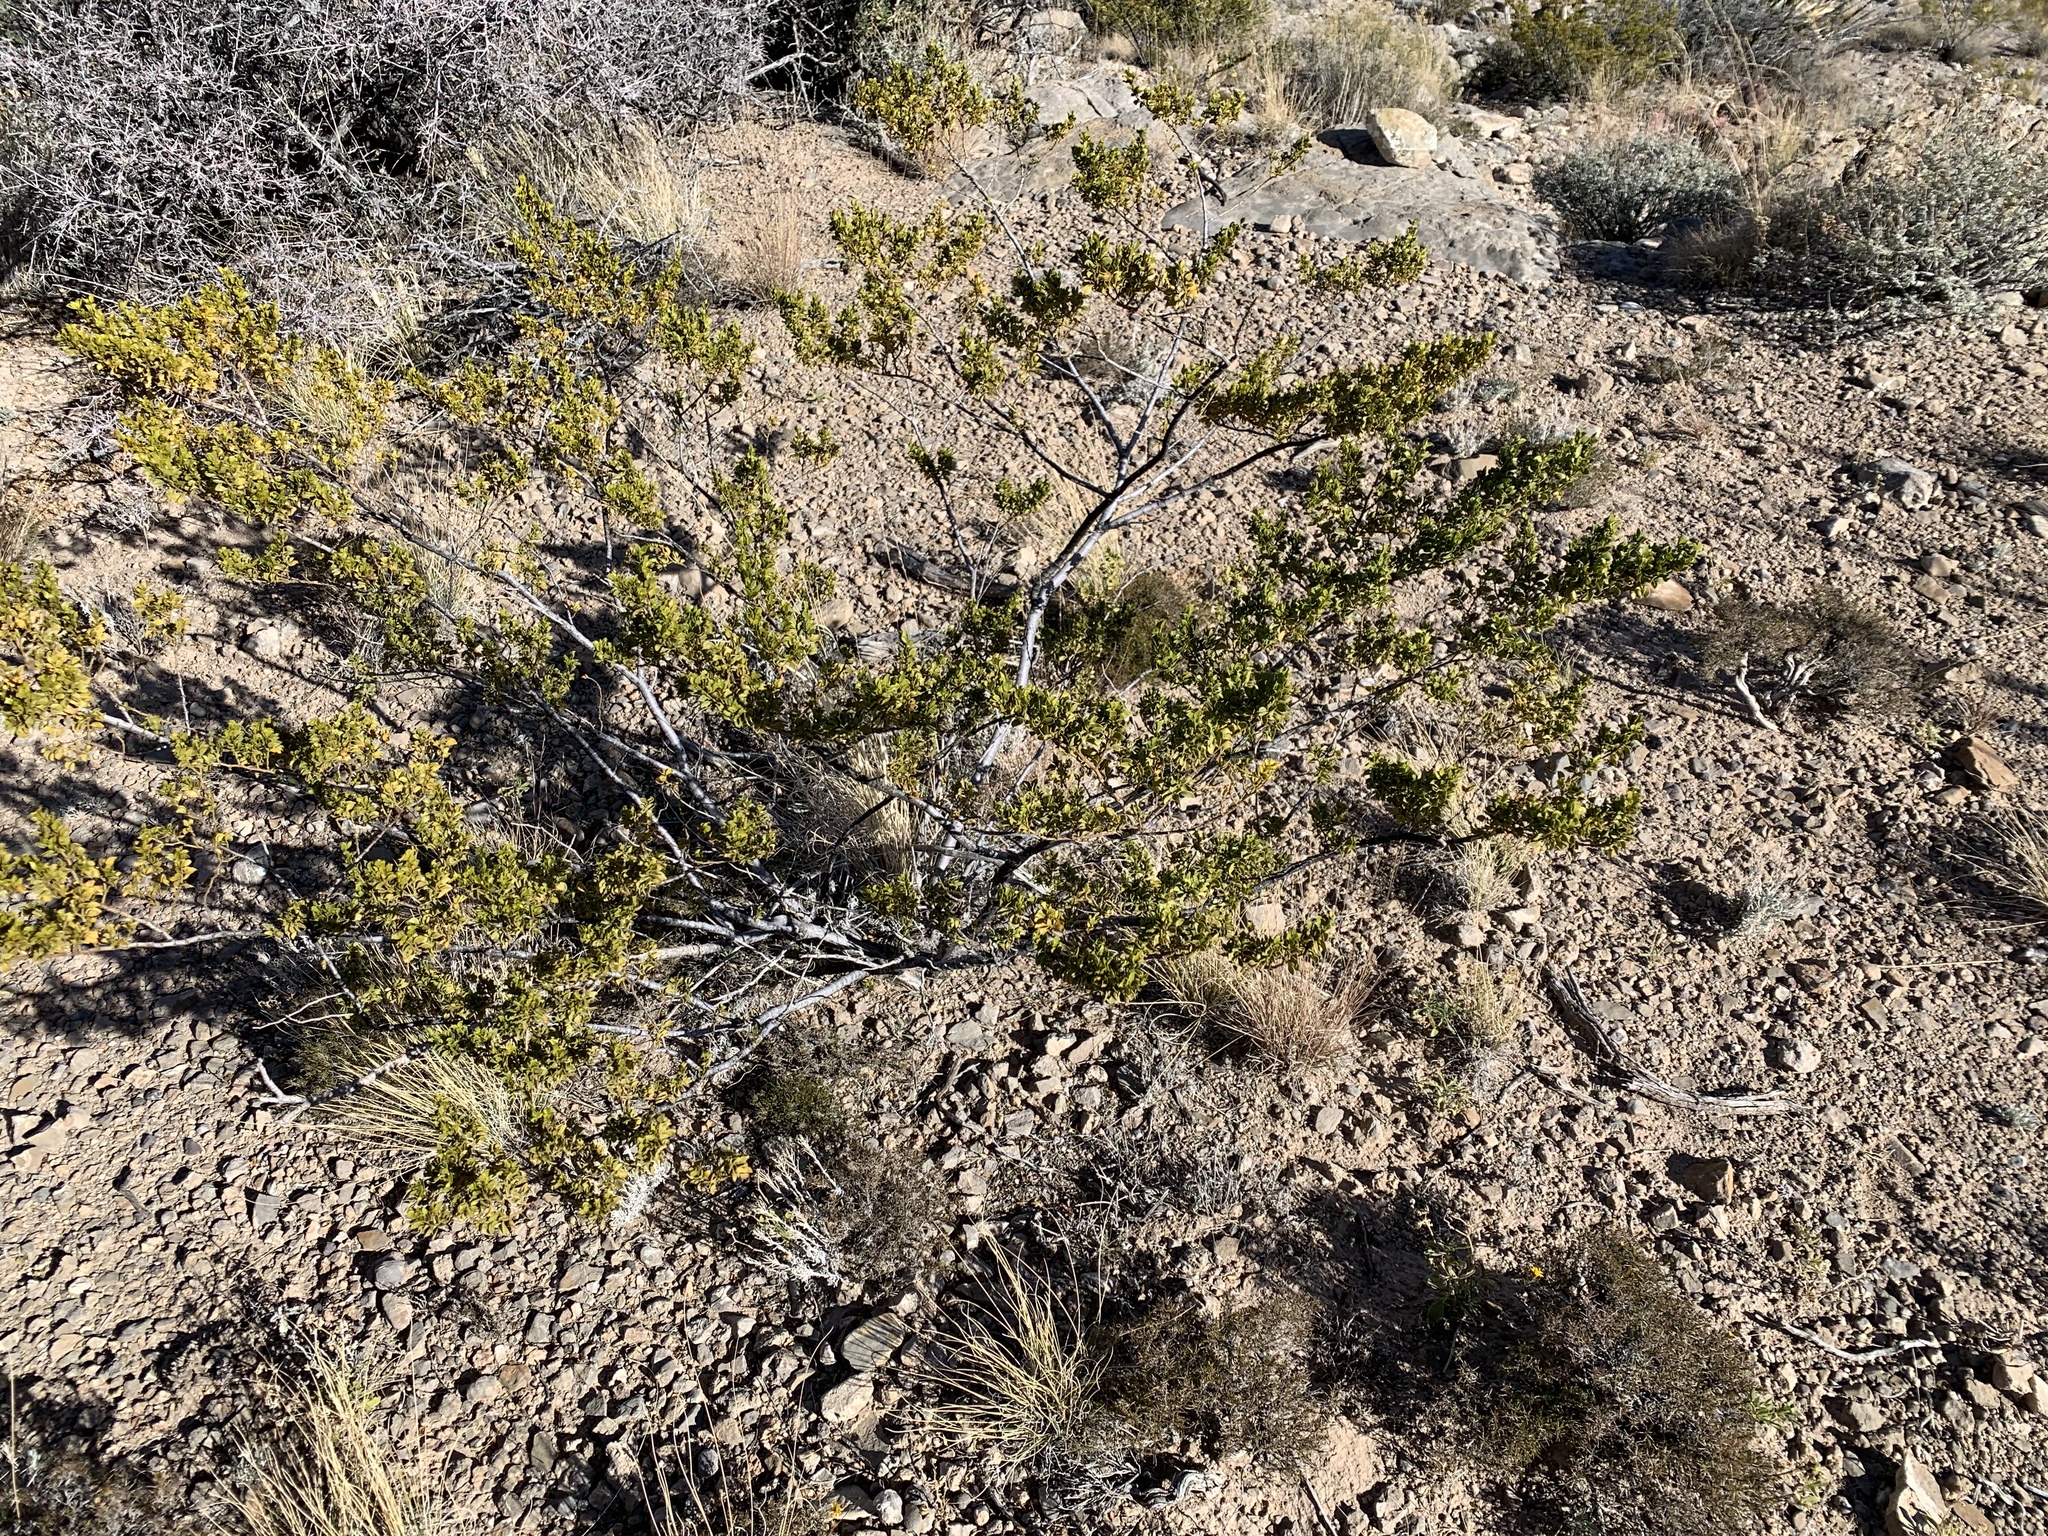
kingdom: Plantae
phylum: Tracheophyta
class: Magnoliopsida
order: Zygophyllales
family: Zygophyllaceae
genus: Larrea
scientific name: Larrea tridentata
